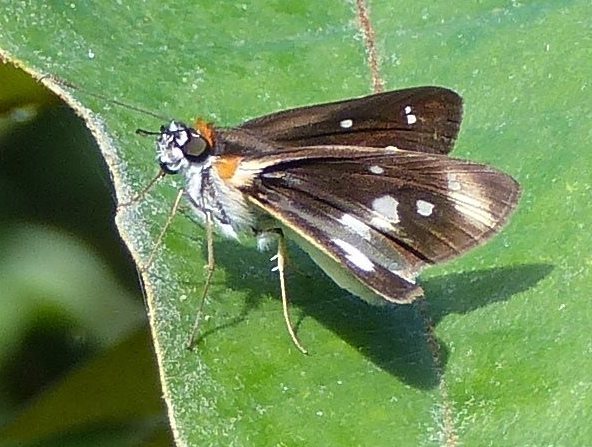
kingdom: Animalia
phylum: Arthropoda
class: Insecta
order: Lepidoptera
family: Hesperiidae
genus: Vettius
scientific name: Vettius marcus
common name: Marcus skipper
